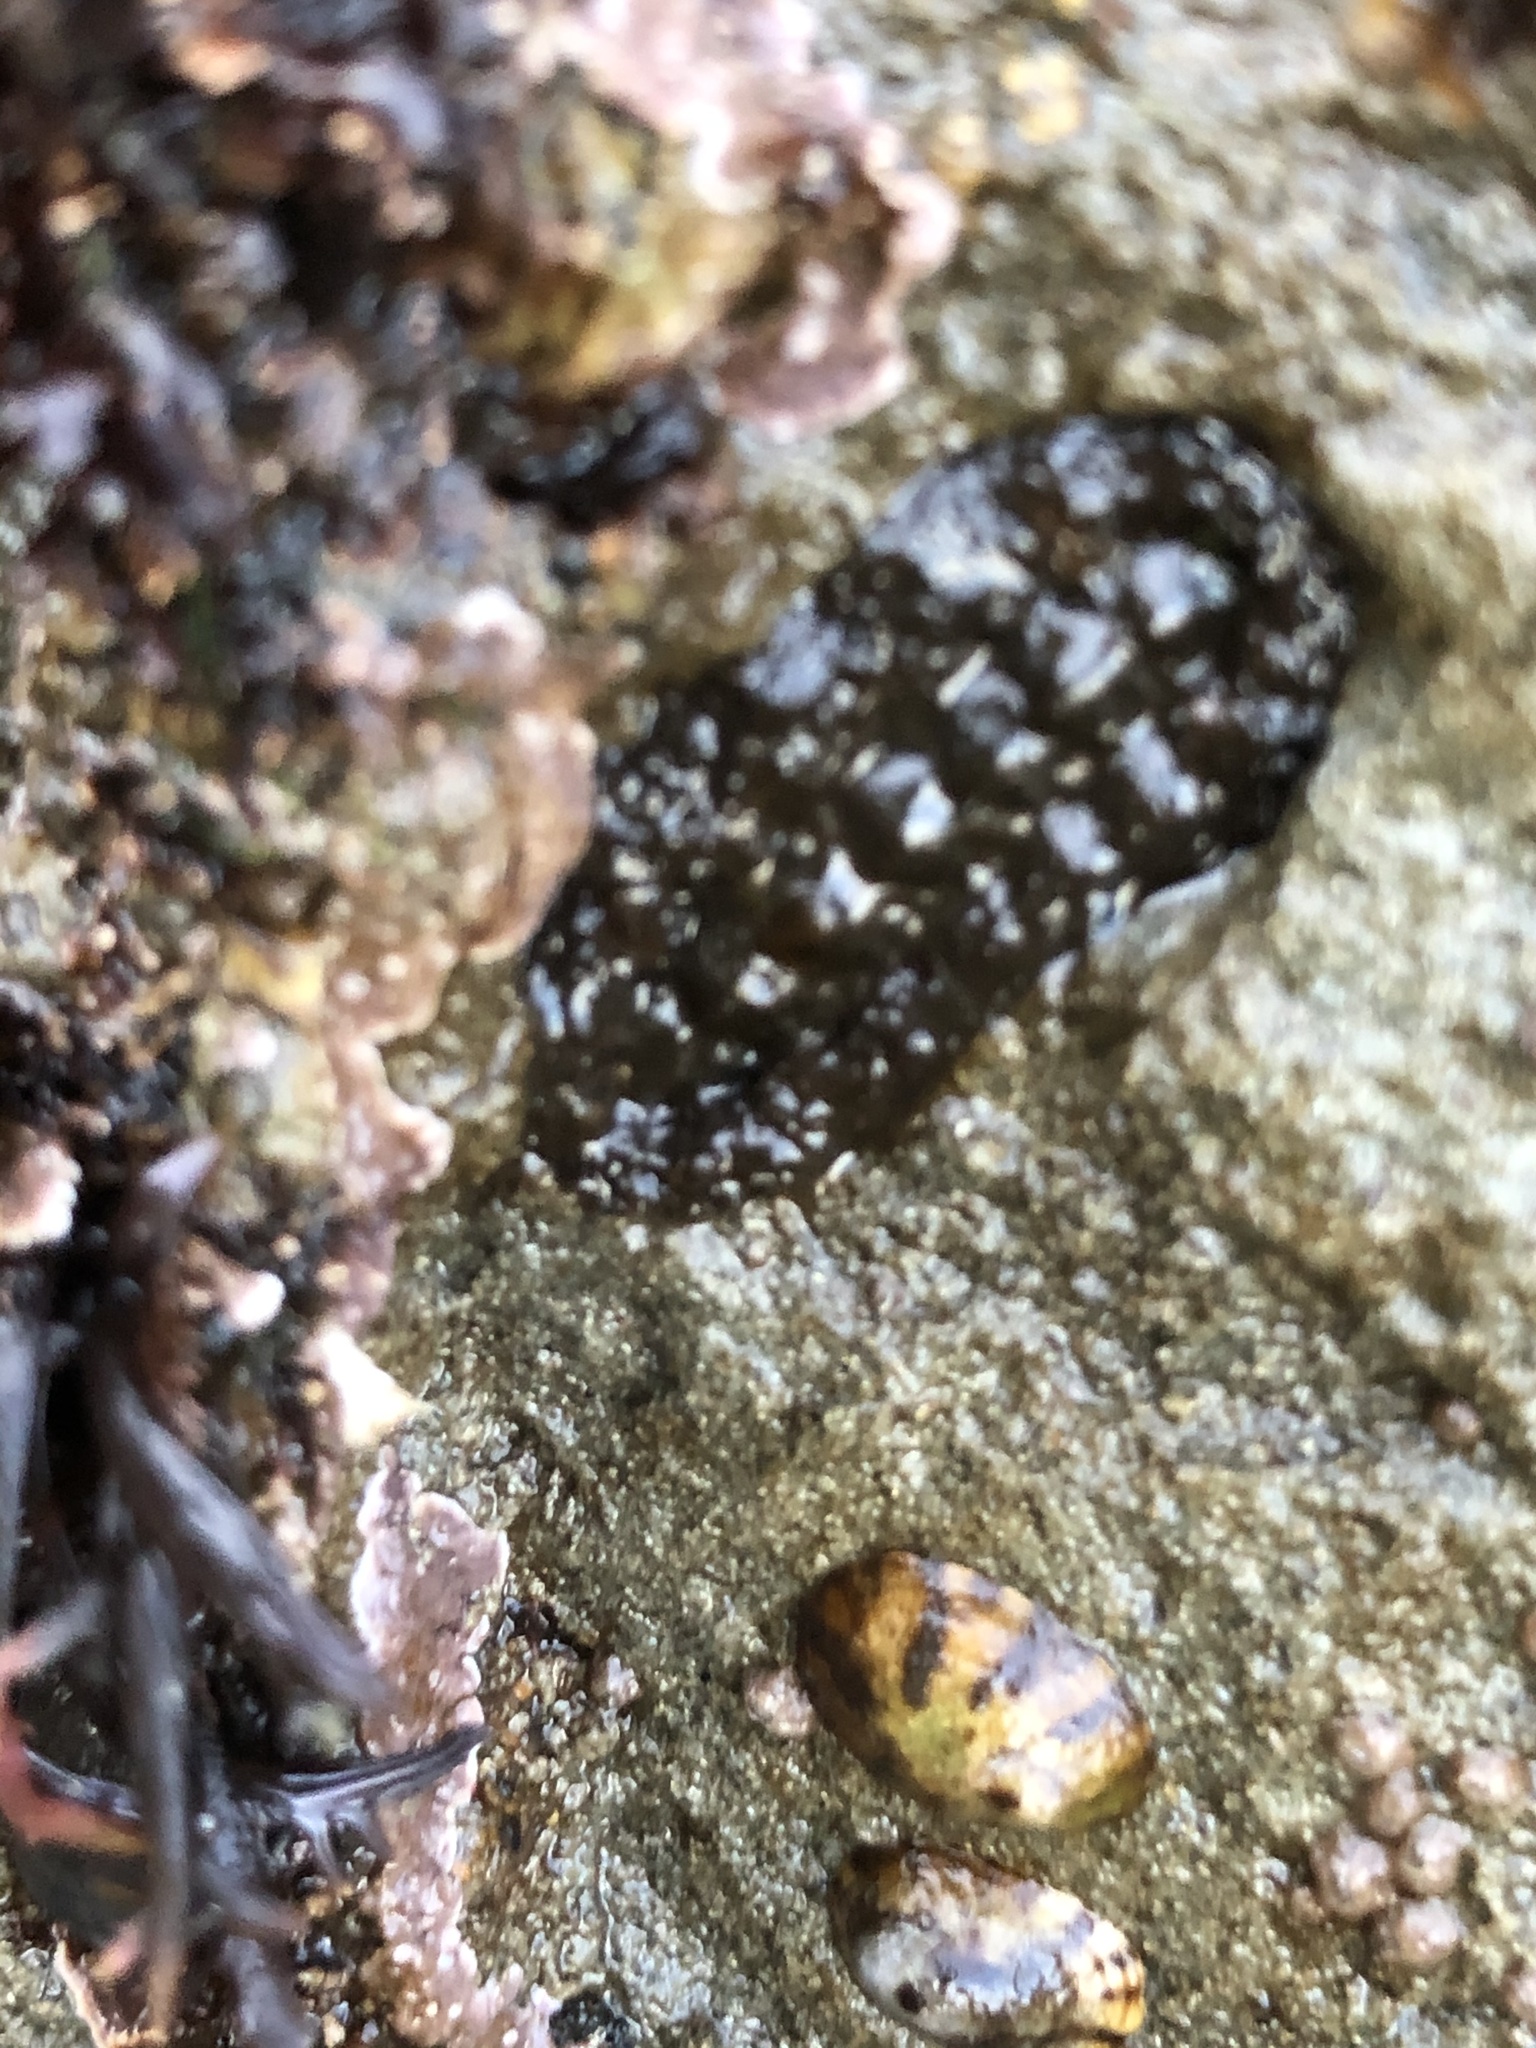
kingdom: Animalia
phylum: Mollusca
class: Polyplacophora
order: Chitonida
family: Tonicellidae
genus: Nuttallina
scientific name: Nuttallina californica
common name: California nuttall chiton
